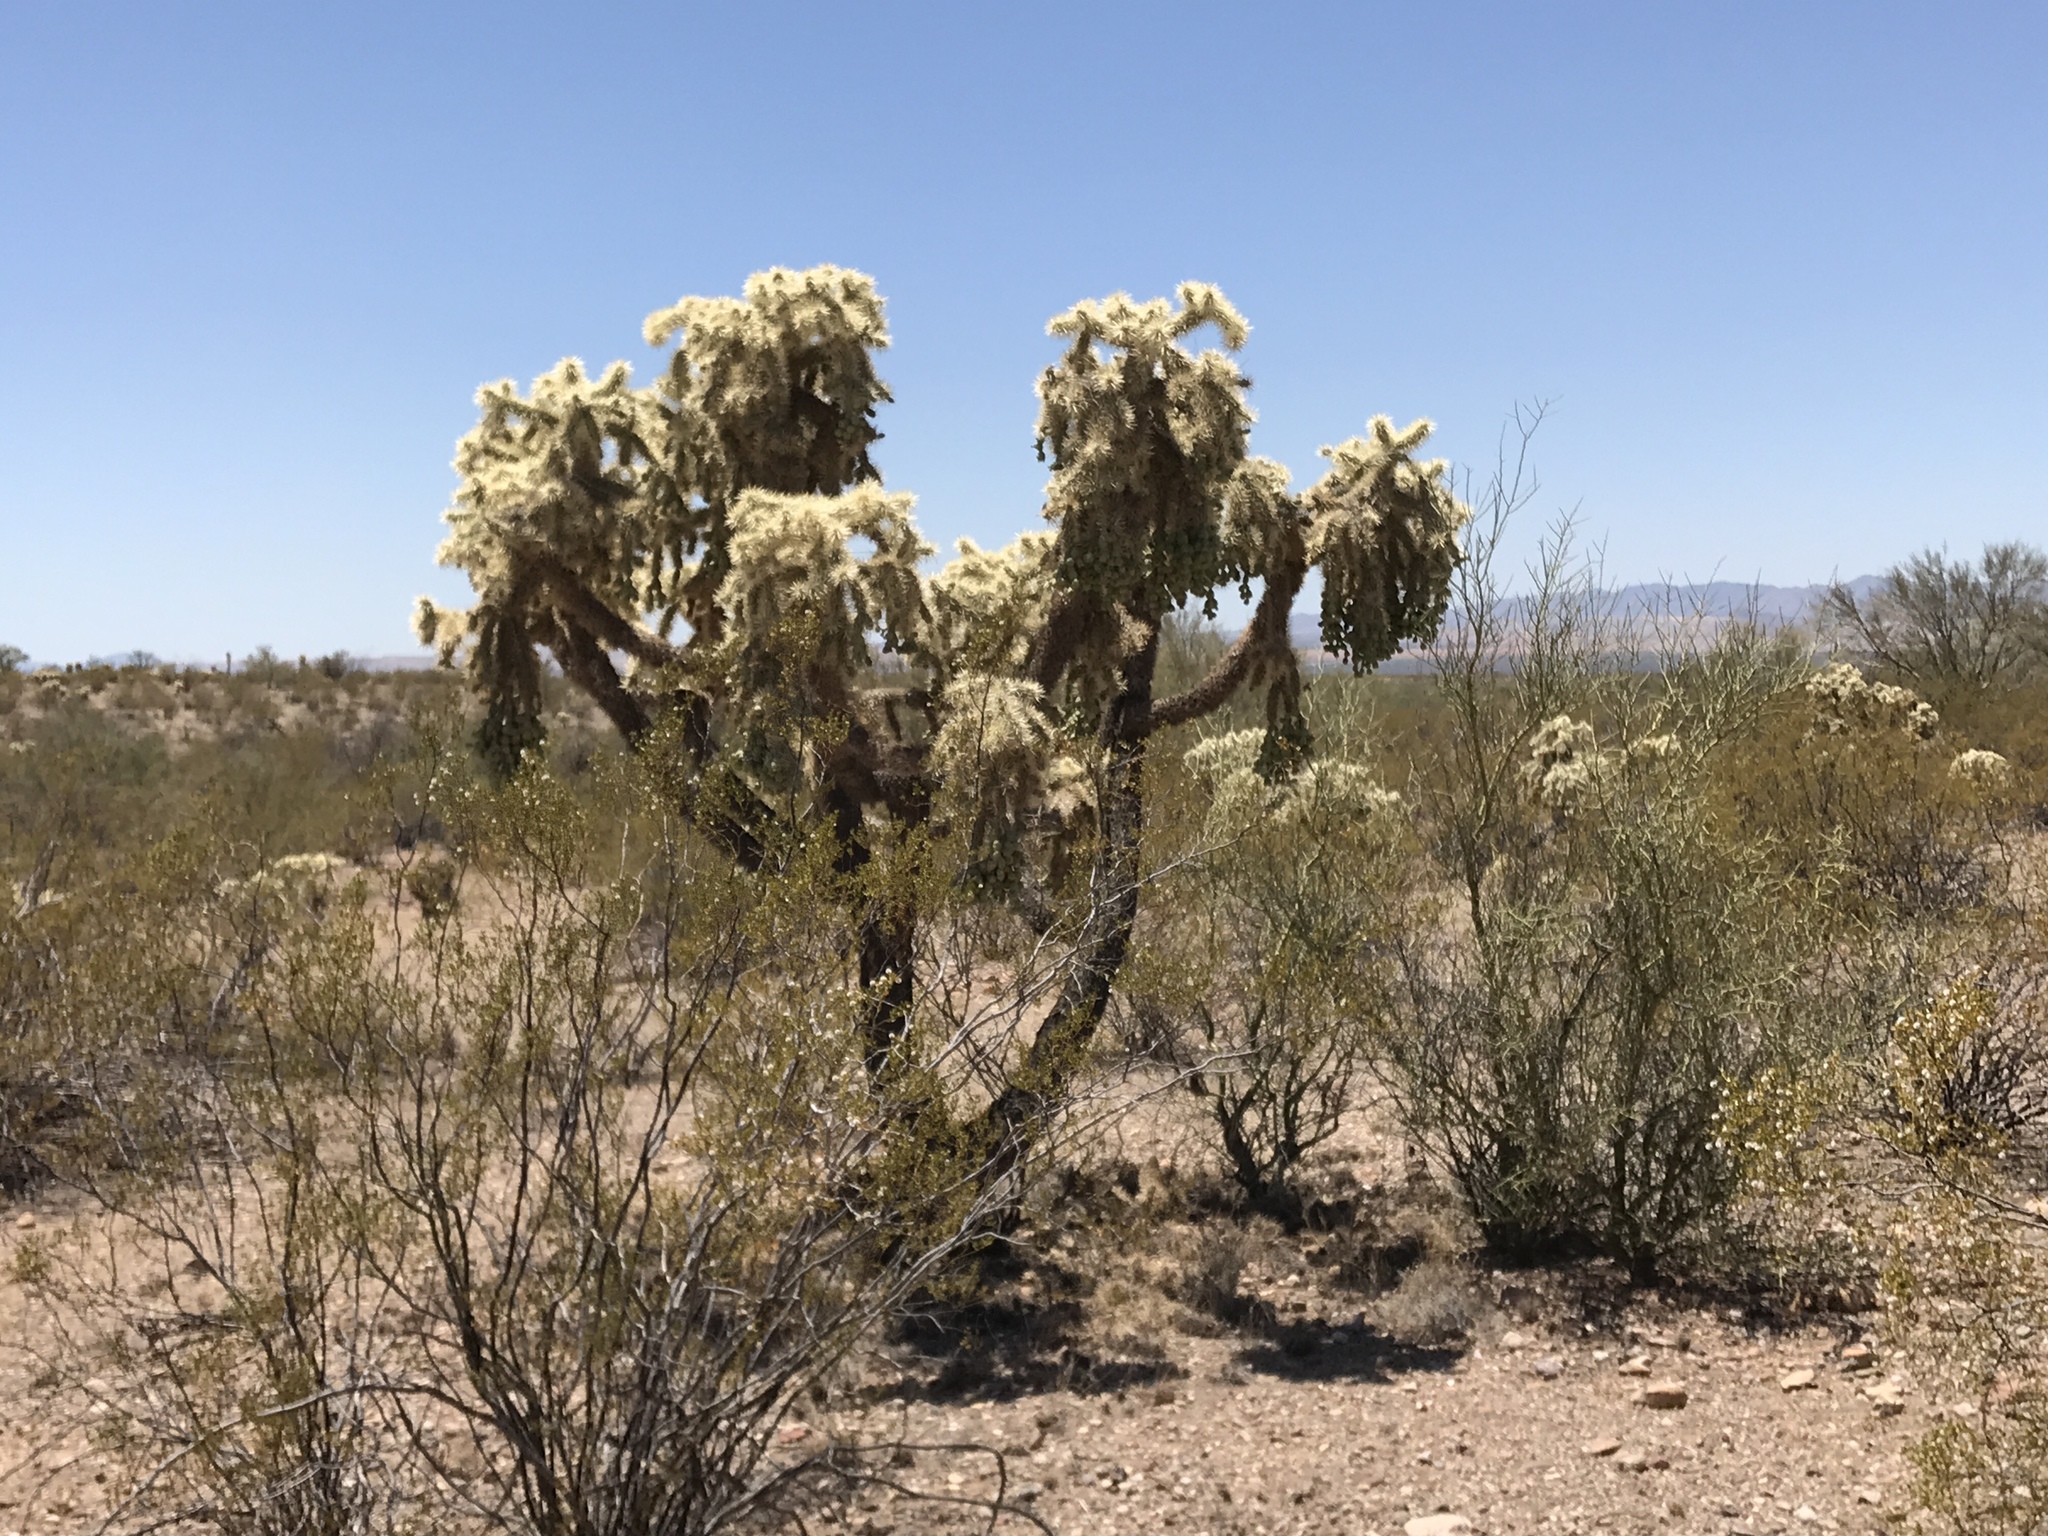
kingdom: Plantae
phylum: Tracheophyta
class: Magnoliopsida
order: Caryophyllales
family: Cactaceae
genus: Cylindropuntia
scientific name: Cylindropuntia fulgida
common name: Jumping cholla
